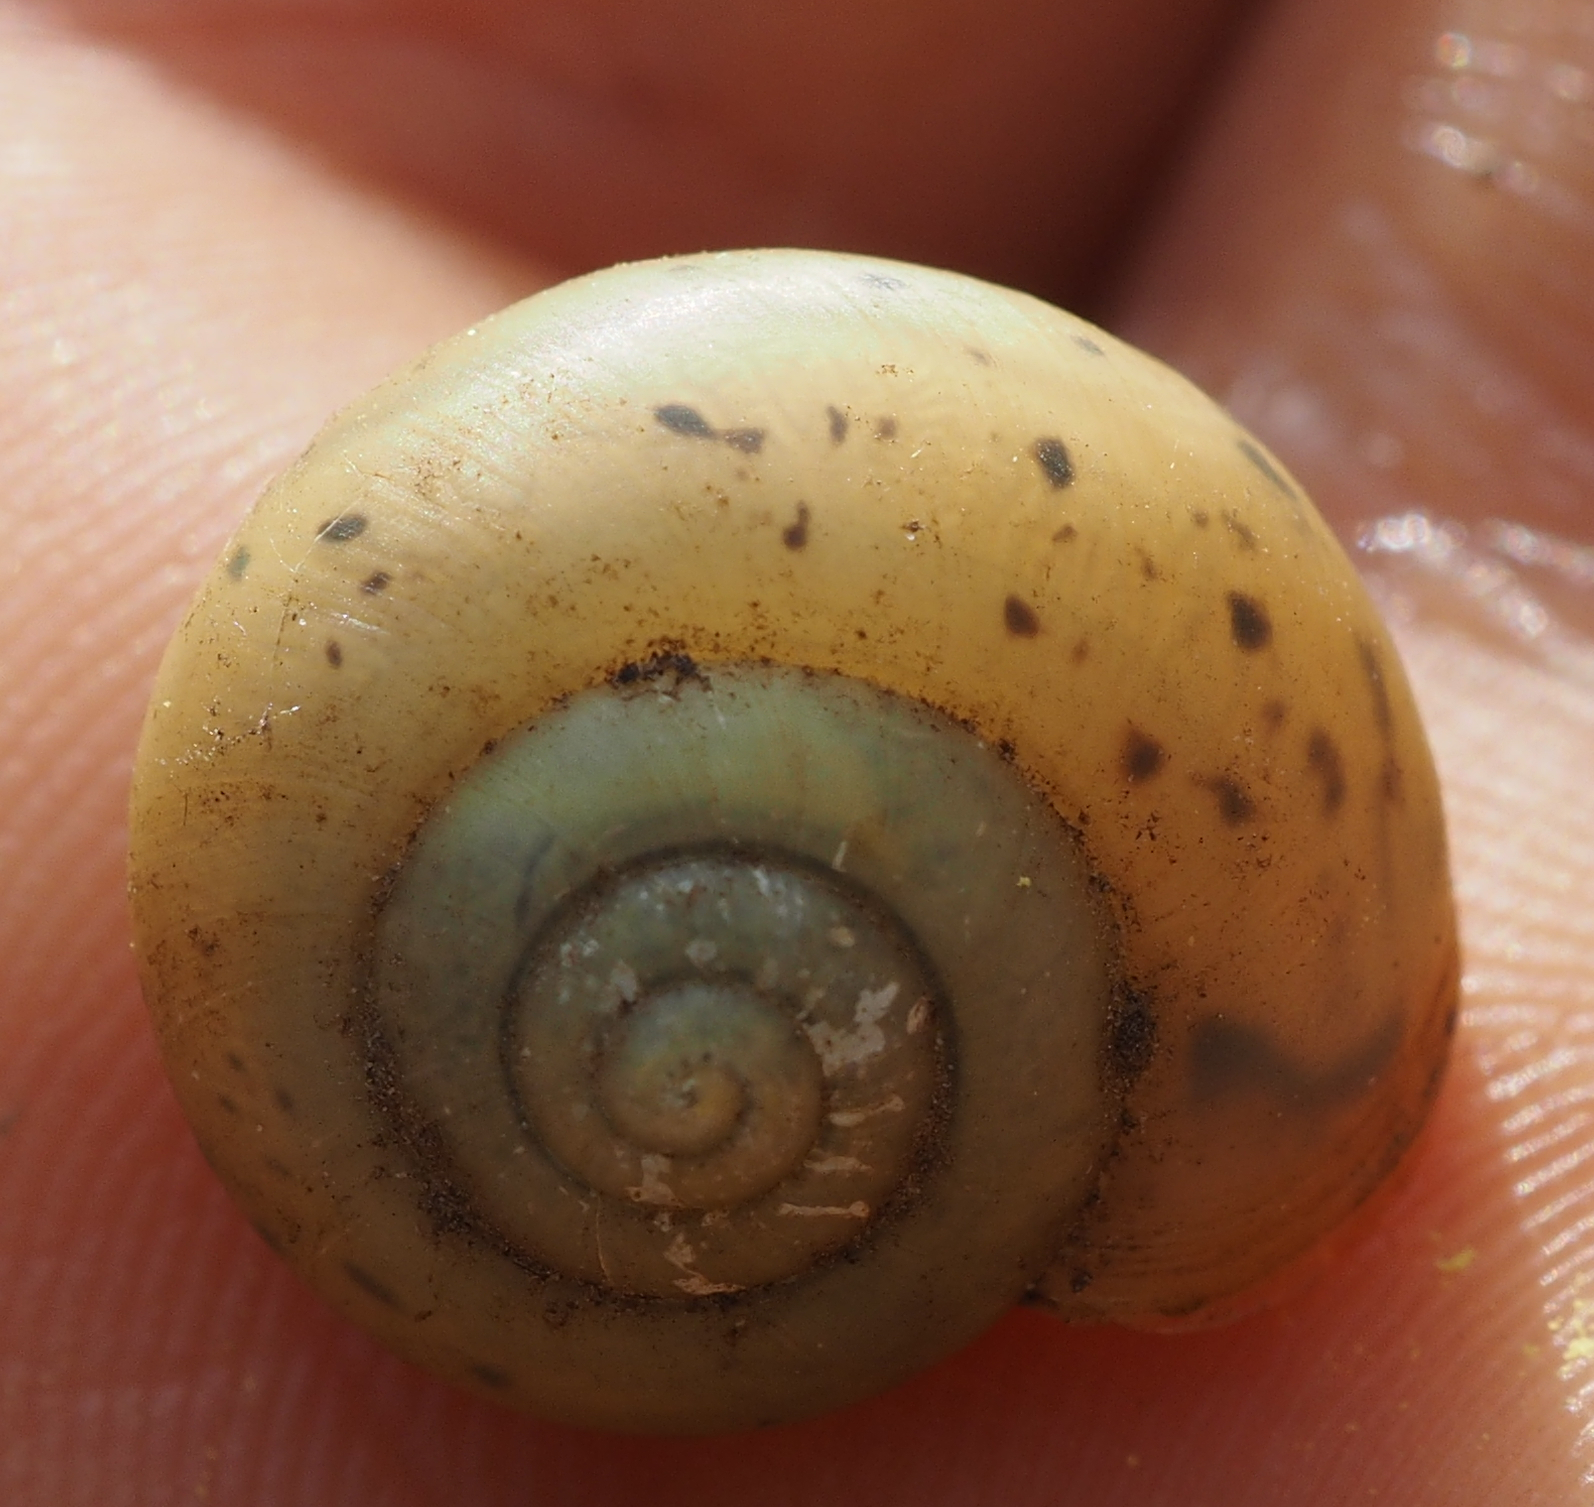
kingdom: Animalia
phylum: Mollusca
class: Gastropoda
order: Stylommatophora
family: Camaenidae
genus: Fruticicola
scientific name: Fruticicola fruticum
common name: Bush snail
